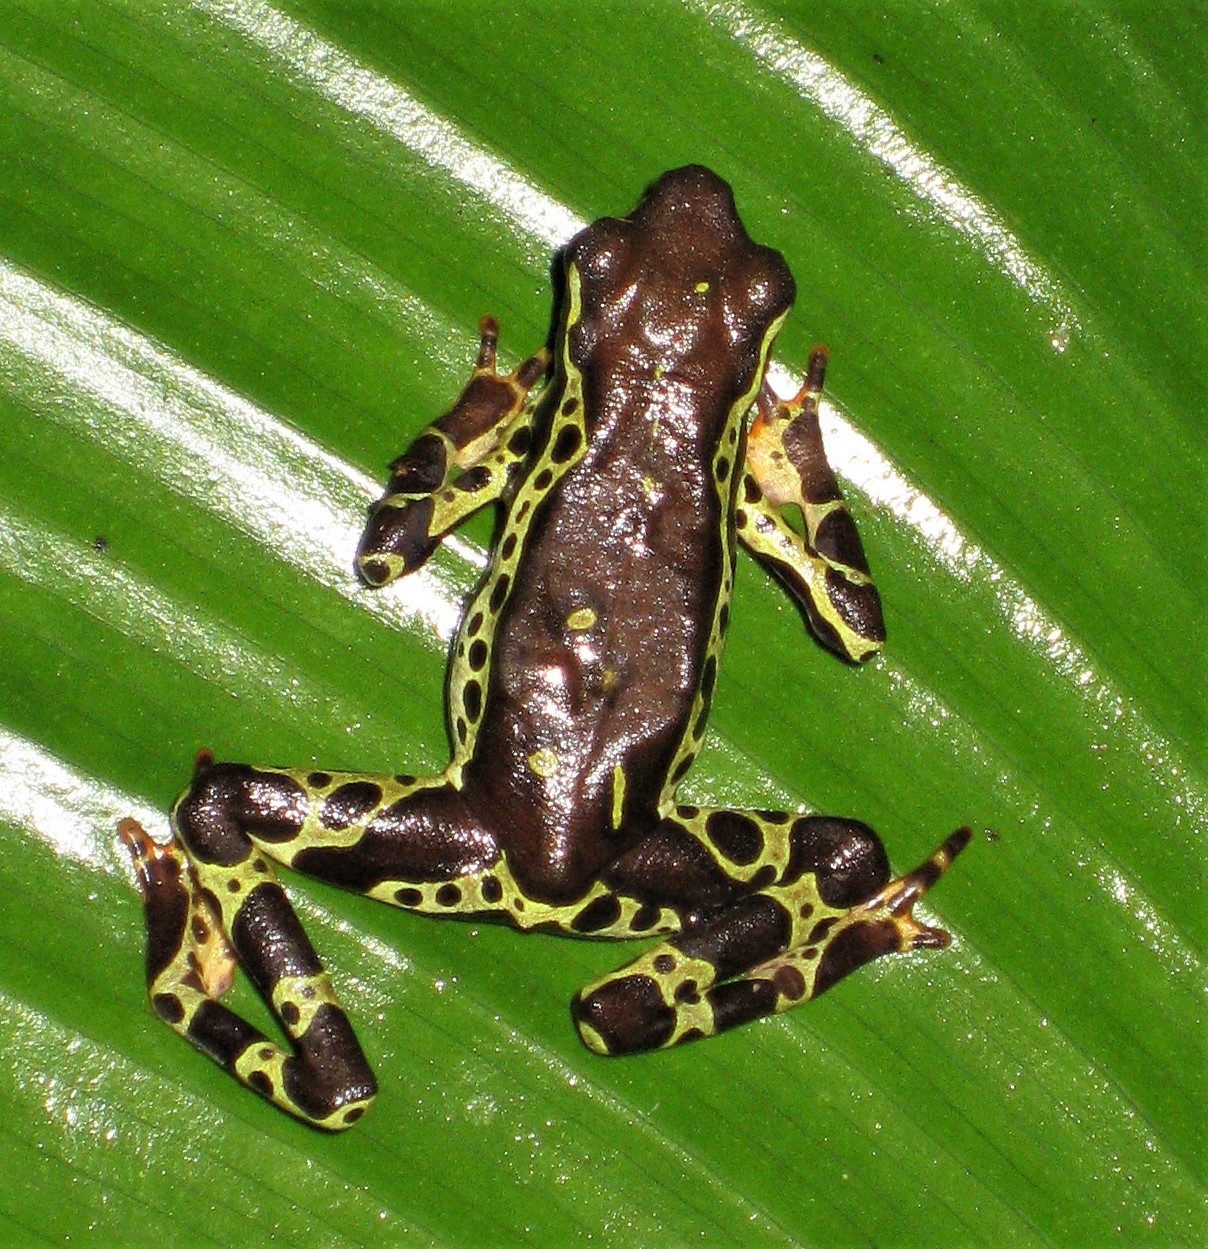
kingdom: Animalia
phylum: Chordata
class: Amphibia
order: Anura
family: Bufonidae
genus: Atelopus
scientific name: Atelopus spumarius
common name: Pebas stubfoot toad
